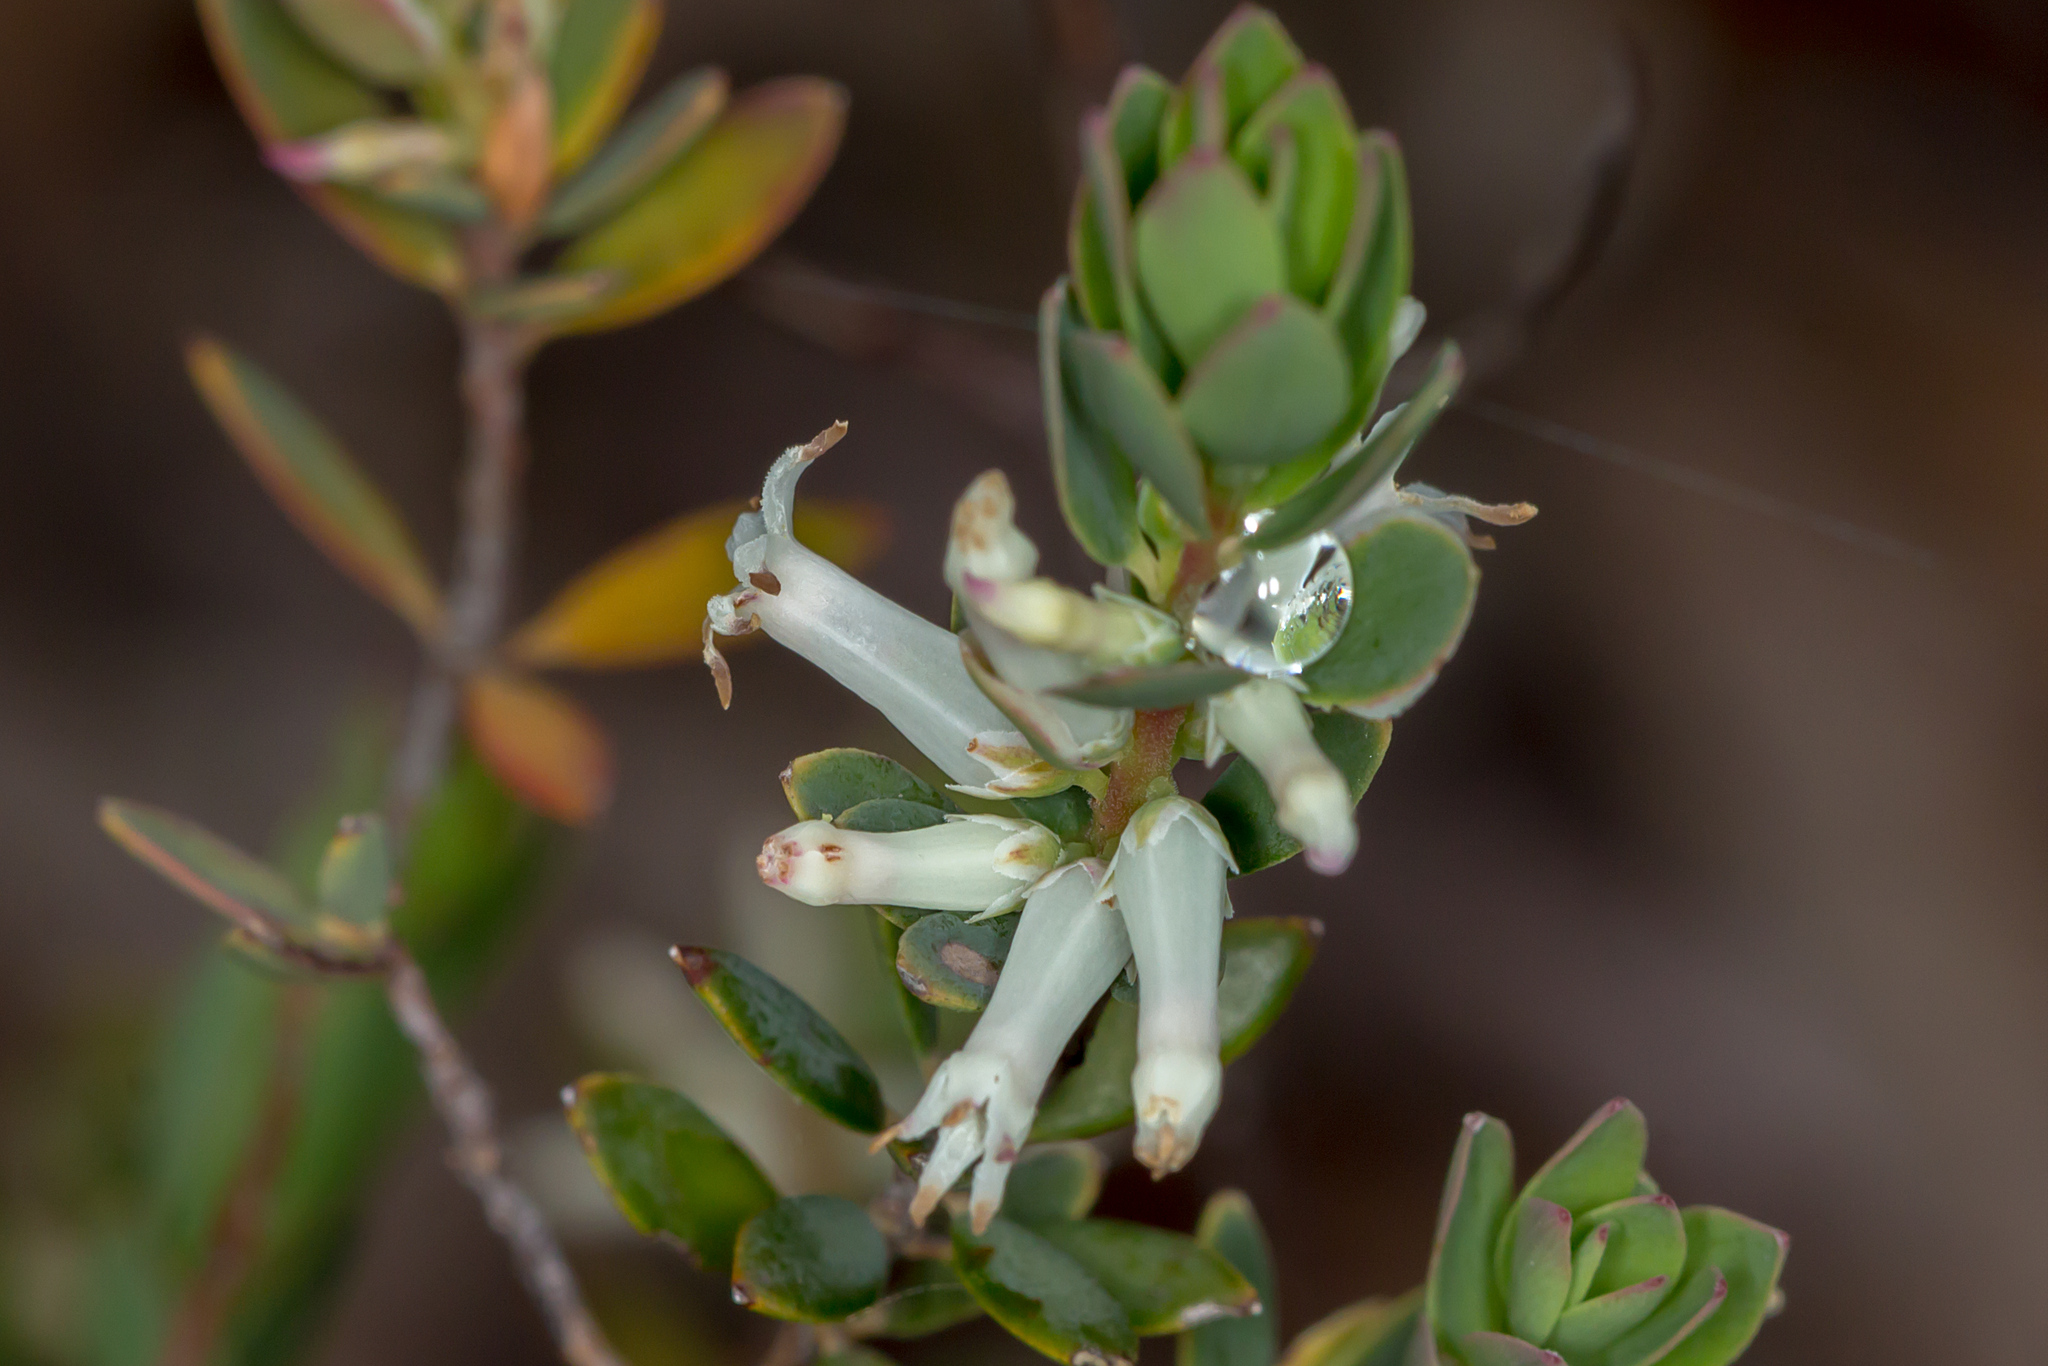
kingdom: Plantae
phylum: Tracheophyta
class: Magnoliopsida
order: Ericales
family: Ericaceae
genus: Brachyloma
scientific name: Brachyloma daphnoides
